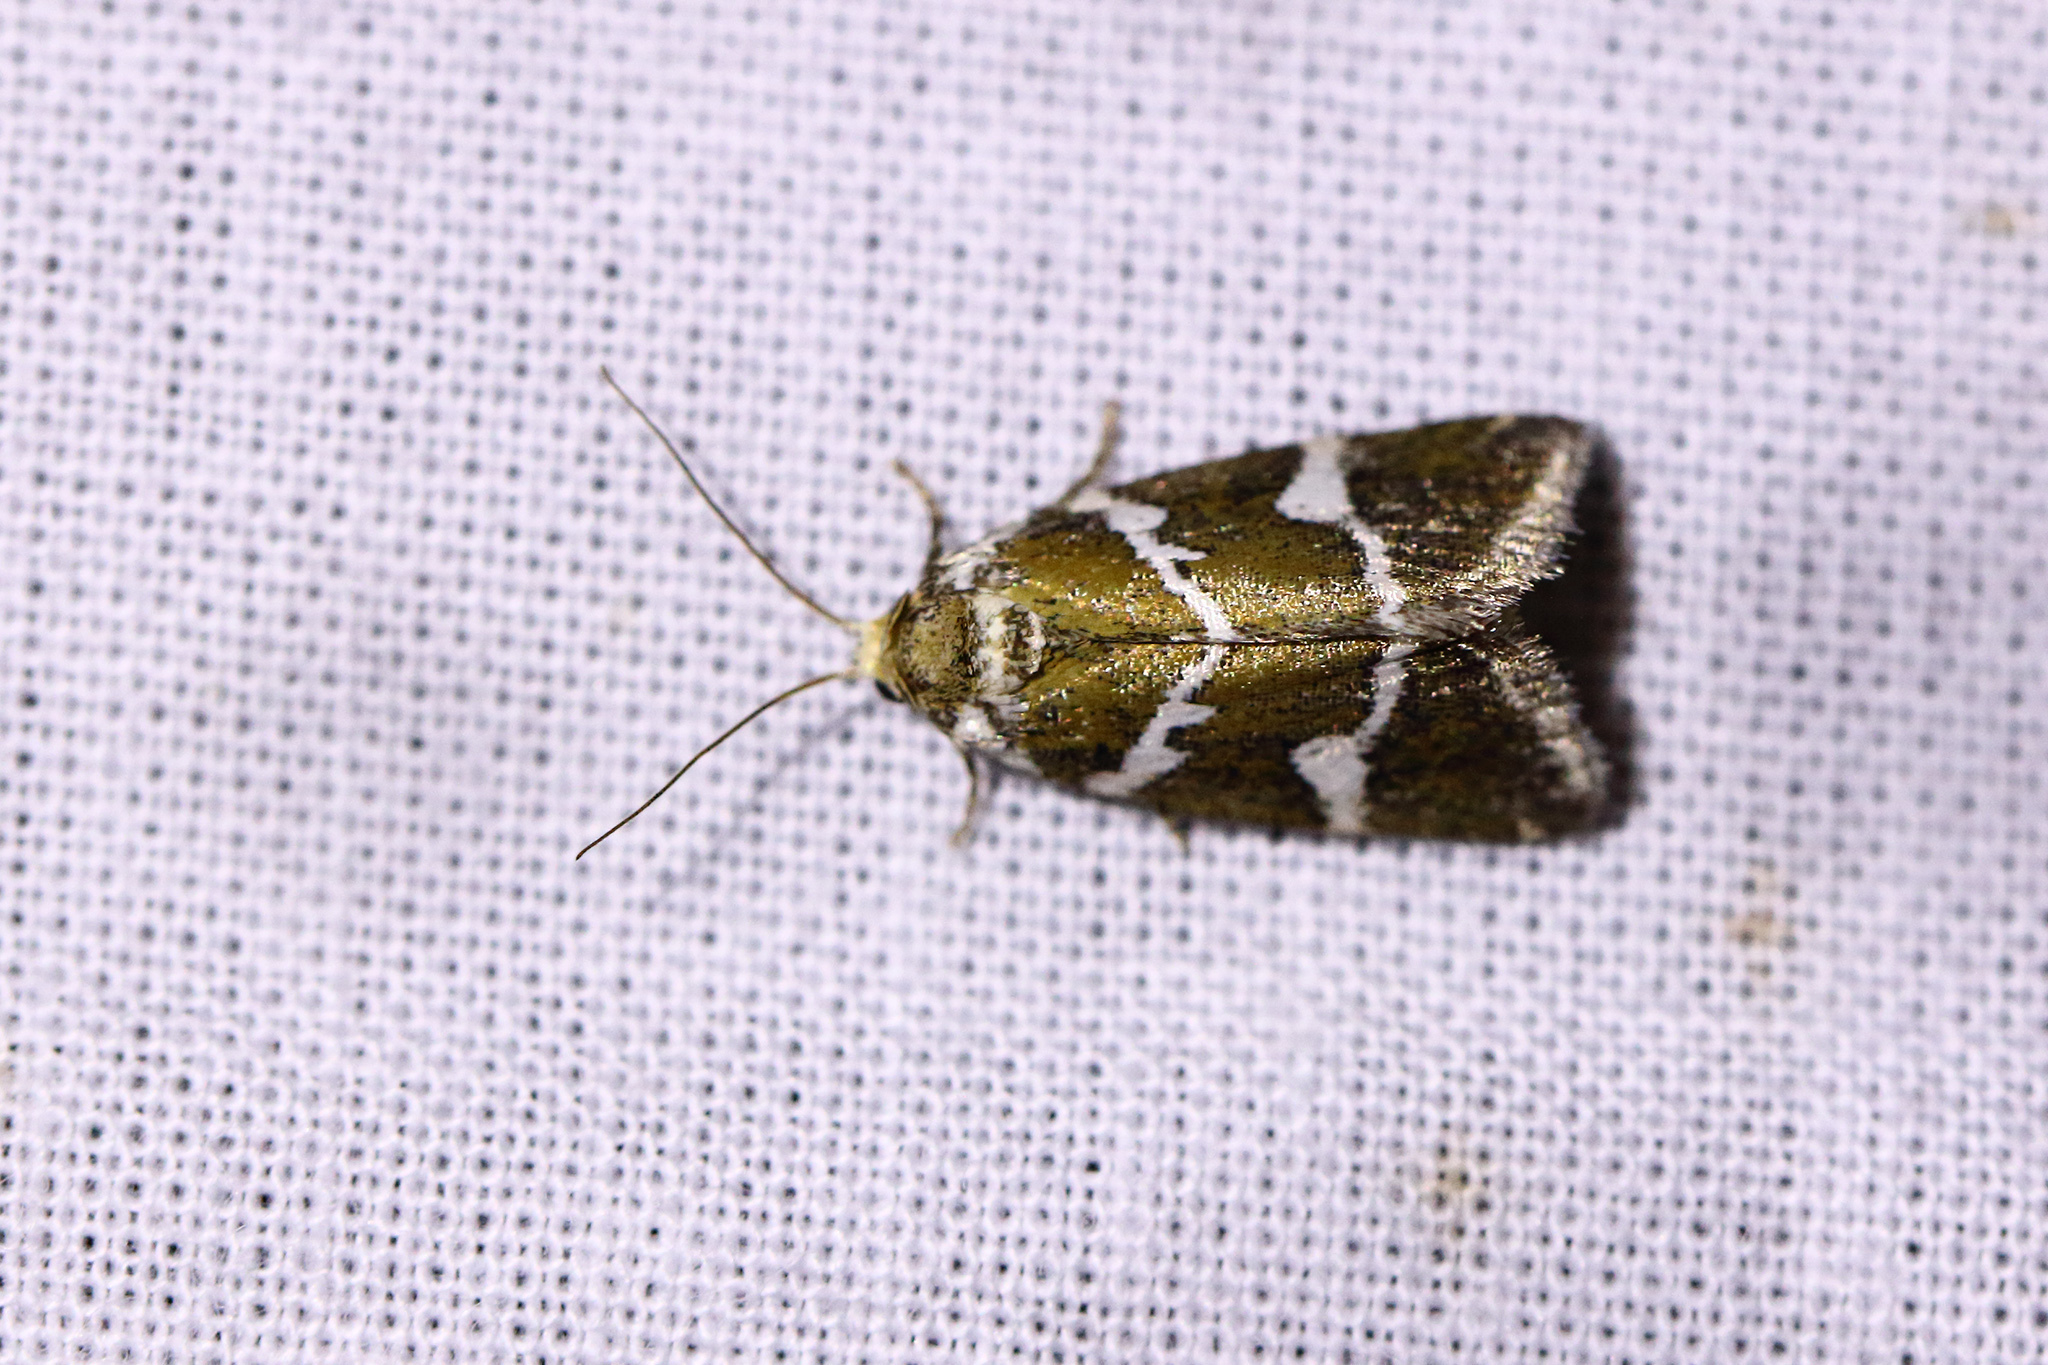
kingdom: Animalia
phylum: Arthropoda
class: Insecta
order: Lepidoptera
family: Noctuidae
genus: Deltote
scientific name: Deltote bankiana
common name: Silver barred
